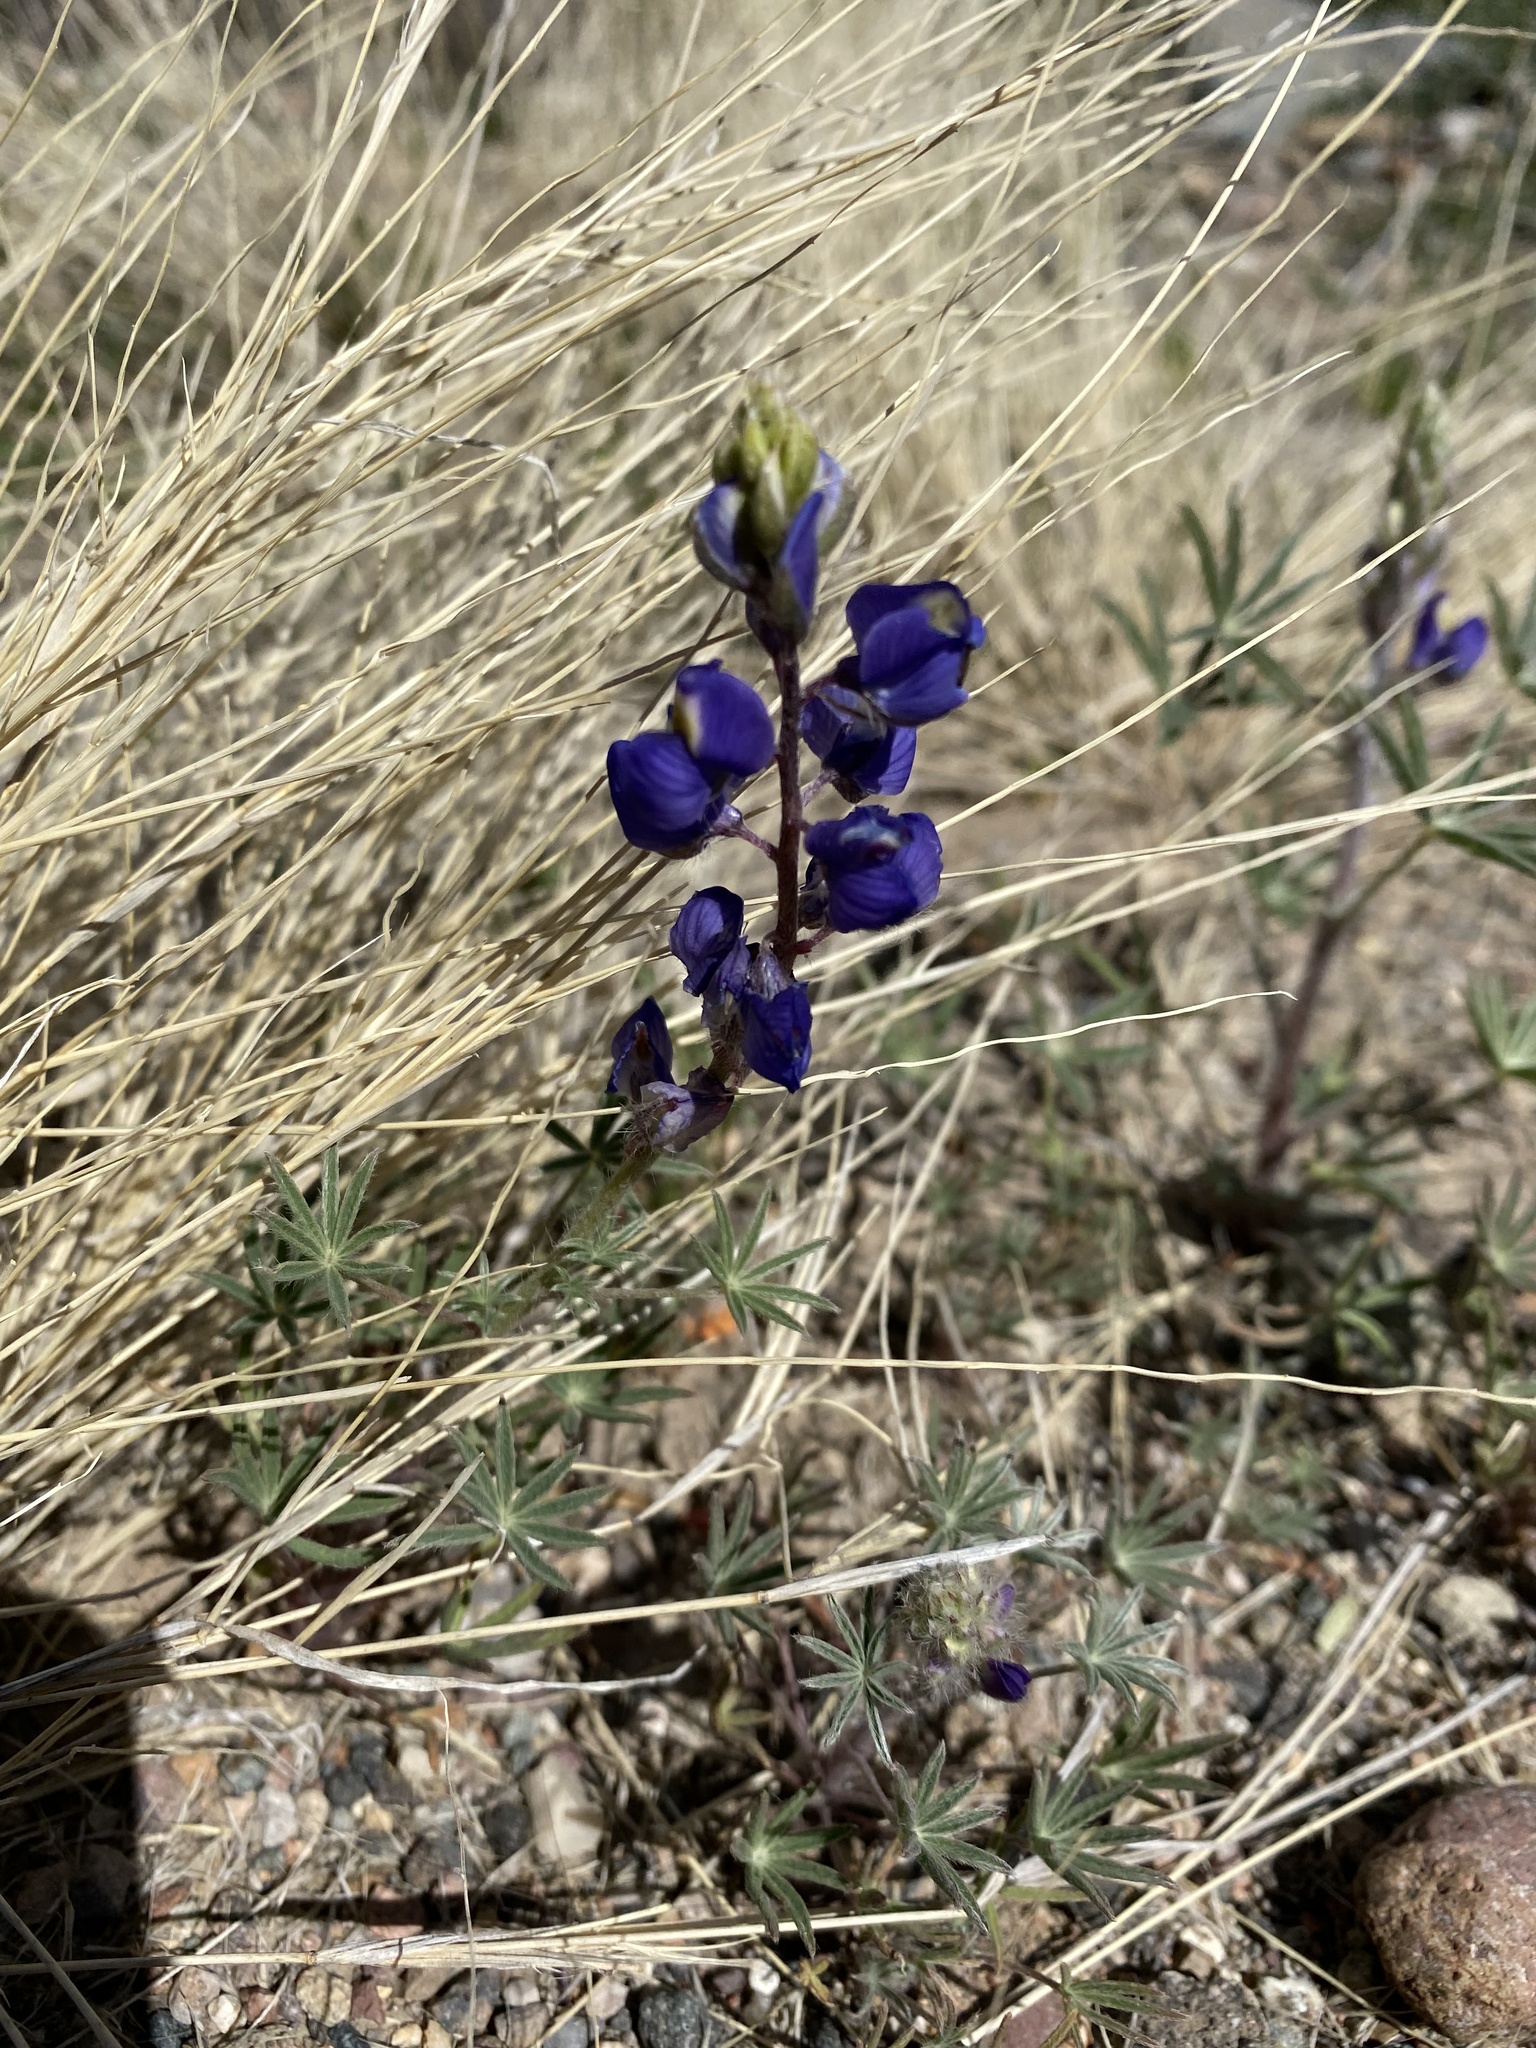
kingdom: Plantae
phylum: Tracheophyta
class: Magnoliopsida
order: Fabales
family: Fabaceae
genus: Lupinus
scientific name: Lupinus sparsiflorus
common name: Coulter's lupine
